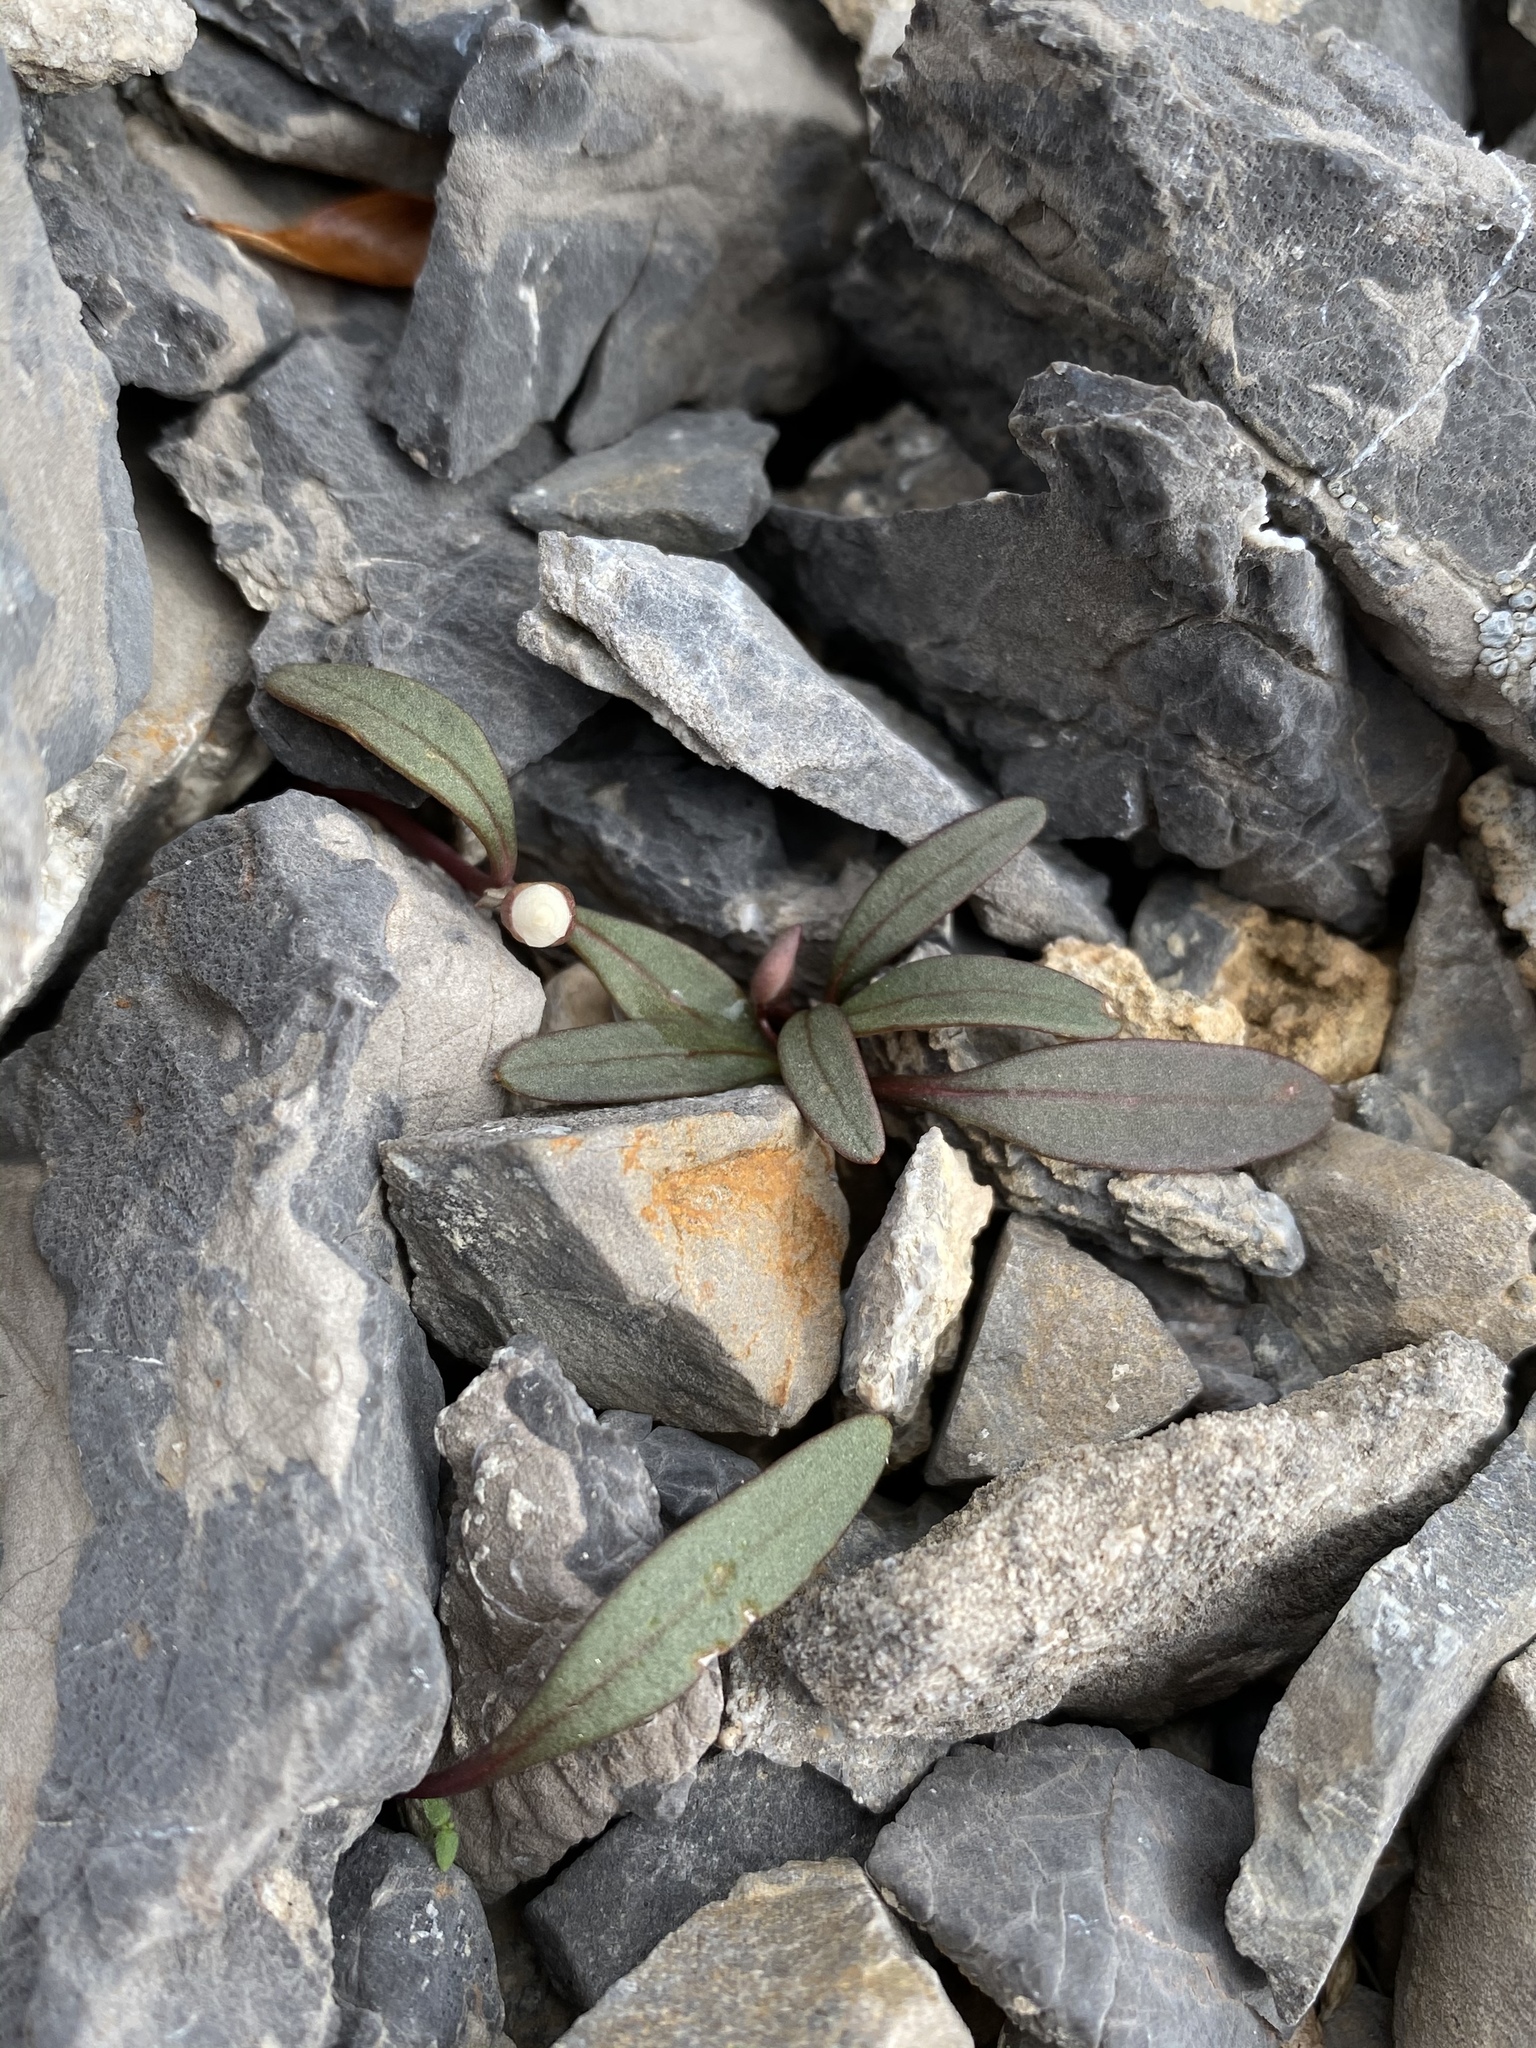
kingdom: Plantae
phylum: Tracheophyta
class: Magnoliopsida
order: Caryophyllales
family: Montiaceae
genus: Claytonia
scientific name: Claytonia panamintensis
